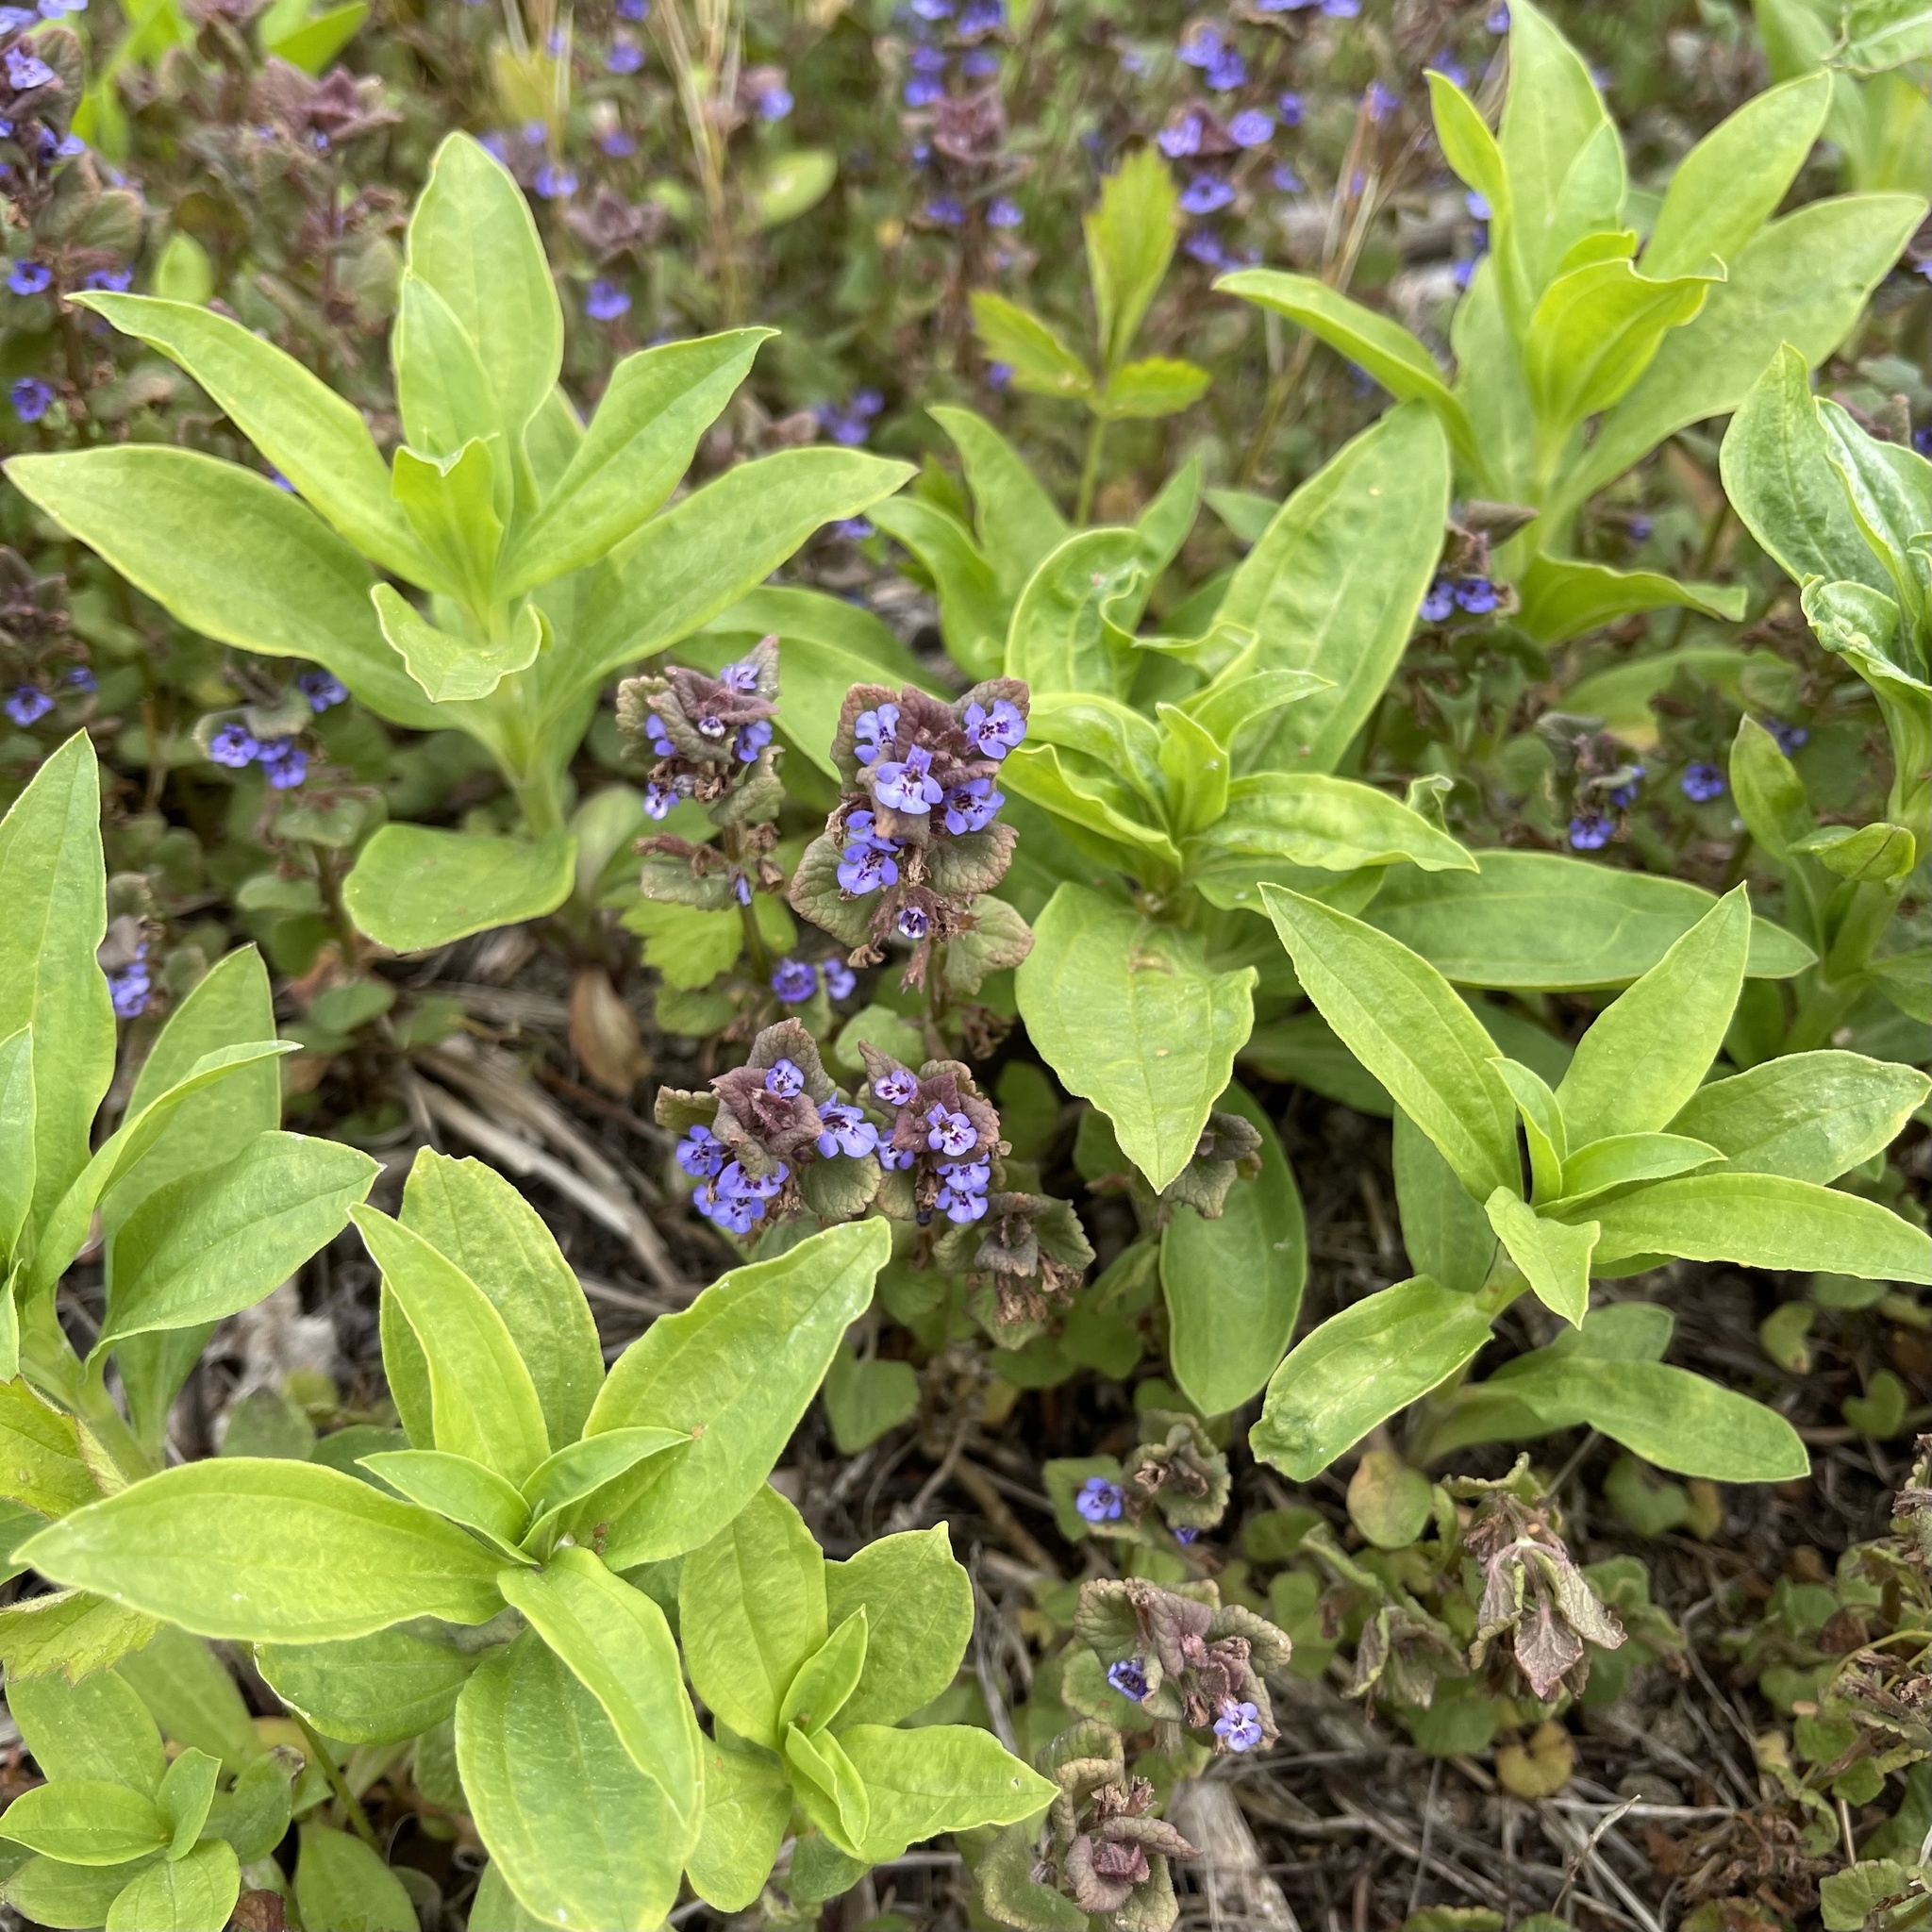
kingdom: Plantae
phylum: Tracheophyta
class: Magnoliopsida
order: Lamiales
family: Lamiaceae
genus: Glechoma
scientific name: Glechoma hederacea
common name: Ground ivy
